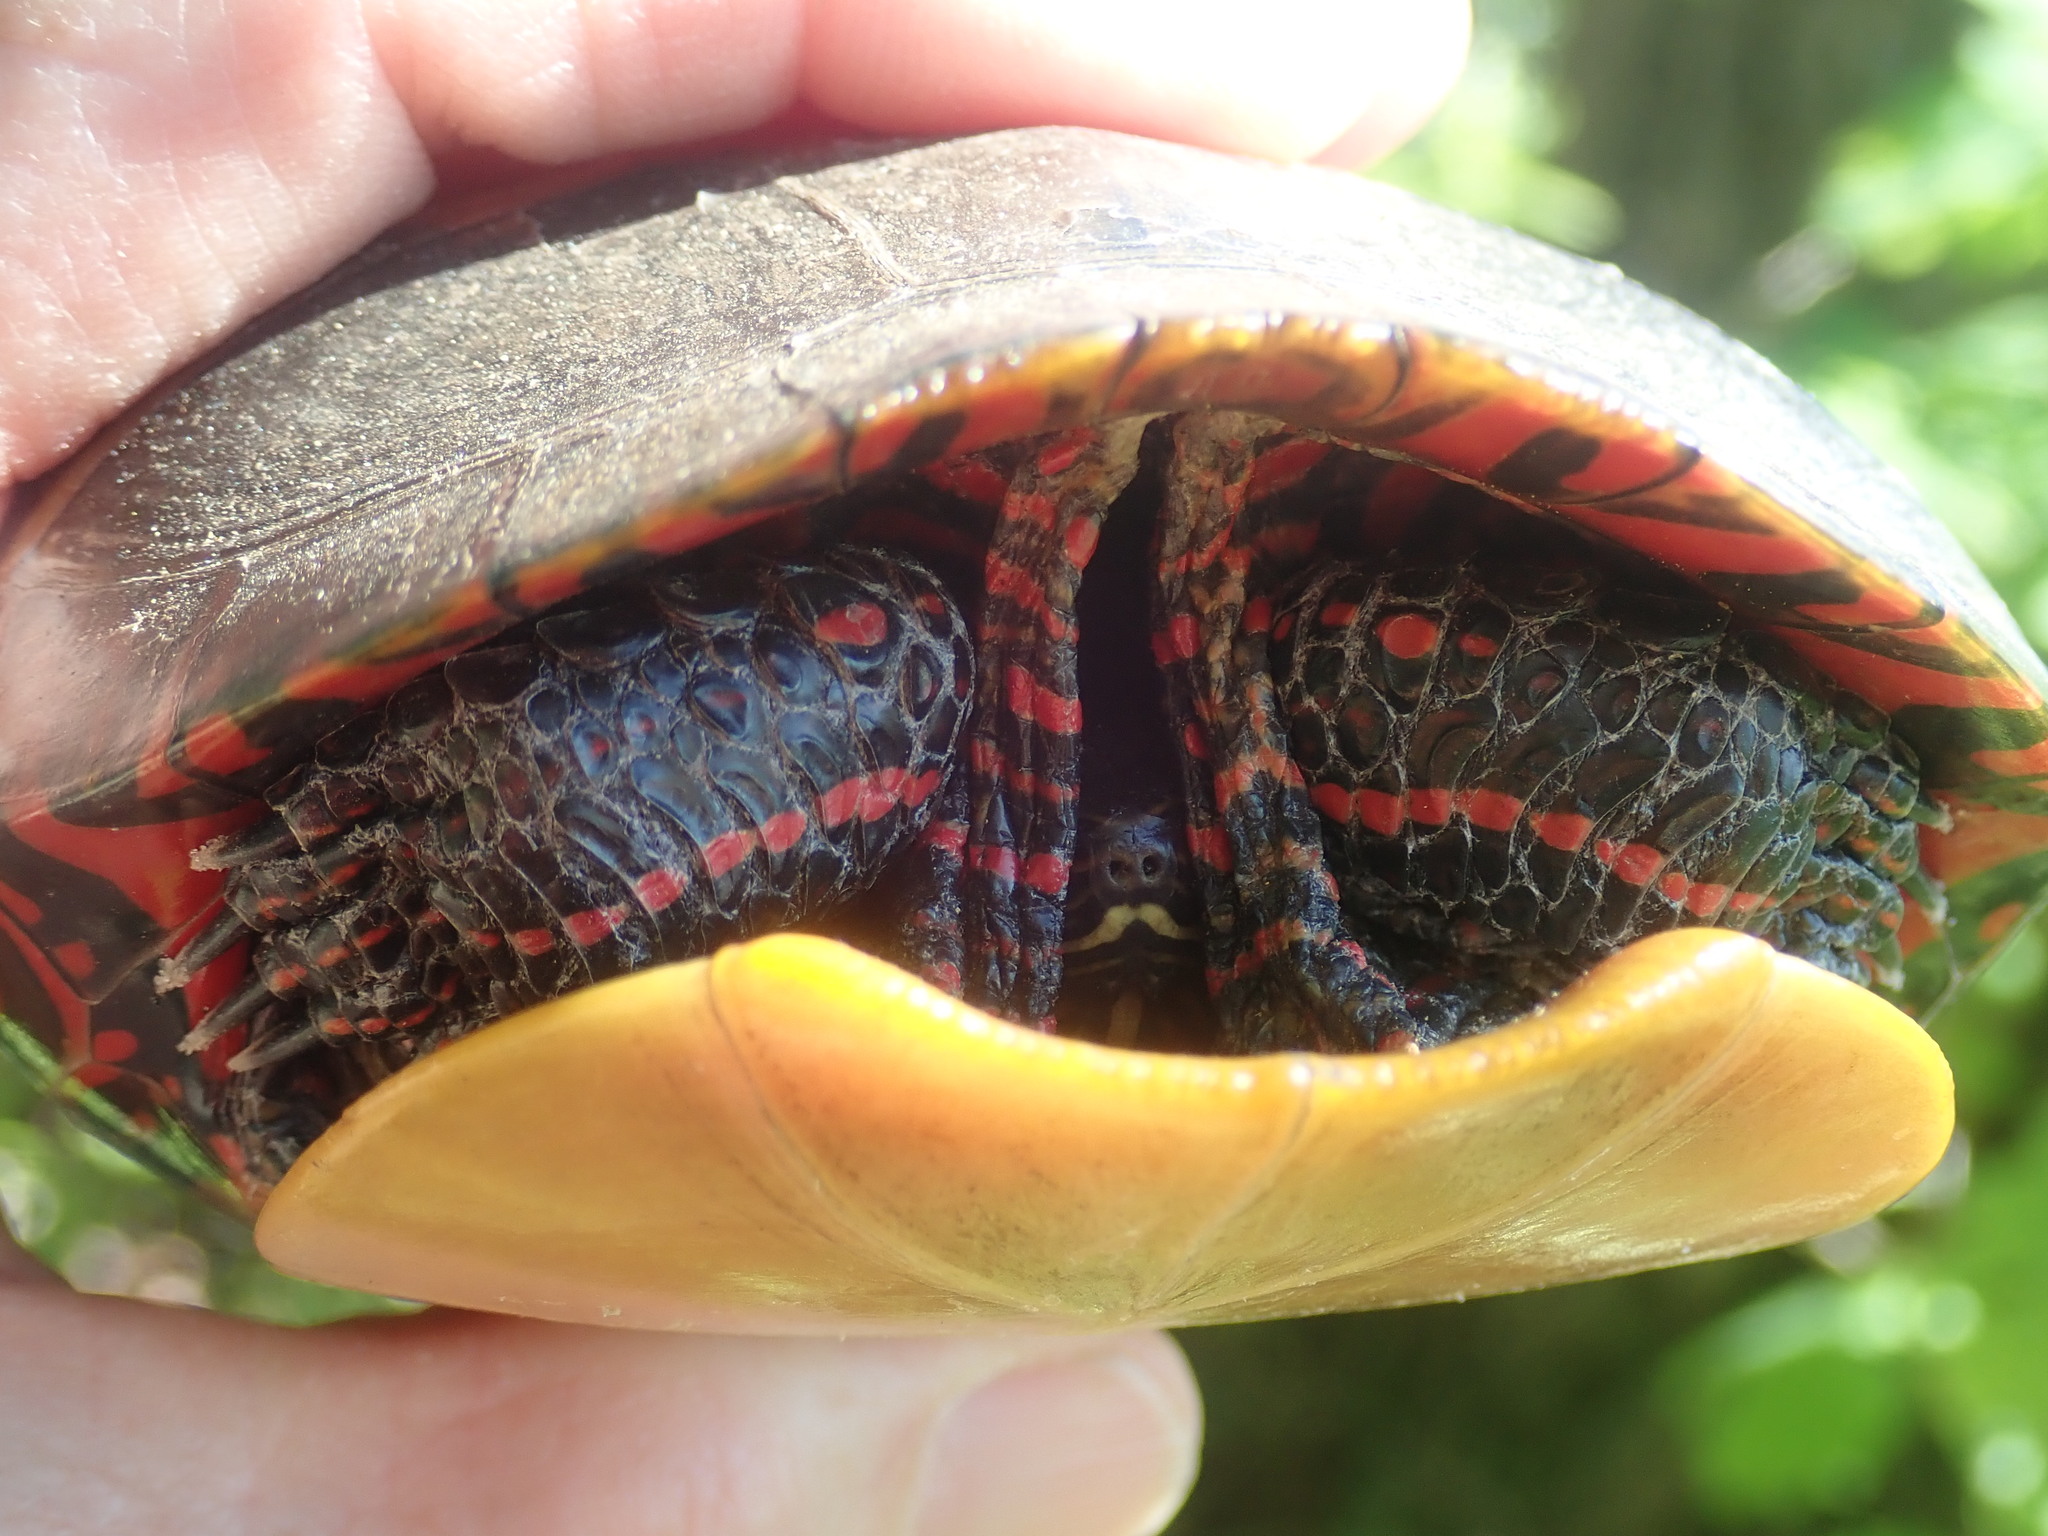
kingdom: Animalia
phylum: Chordata
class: Testudines
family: Emydidae
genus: Chrysemys
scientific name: Chrysemys picta
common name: Painted turtle
